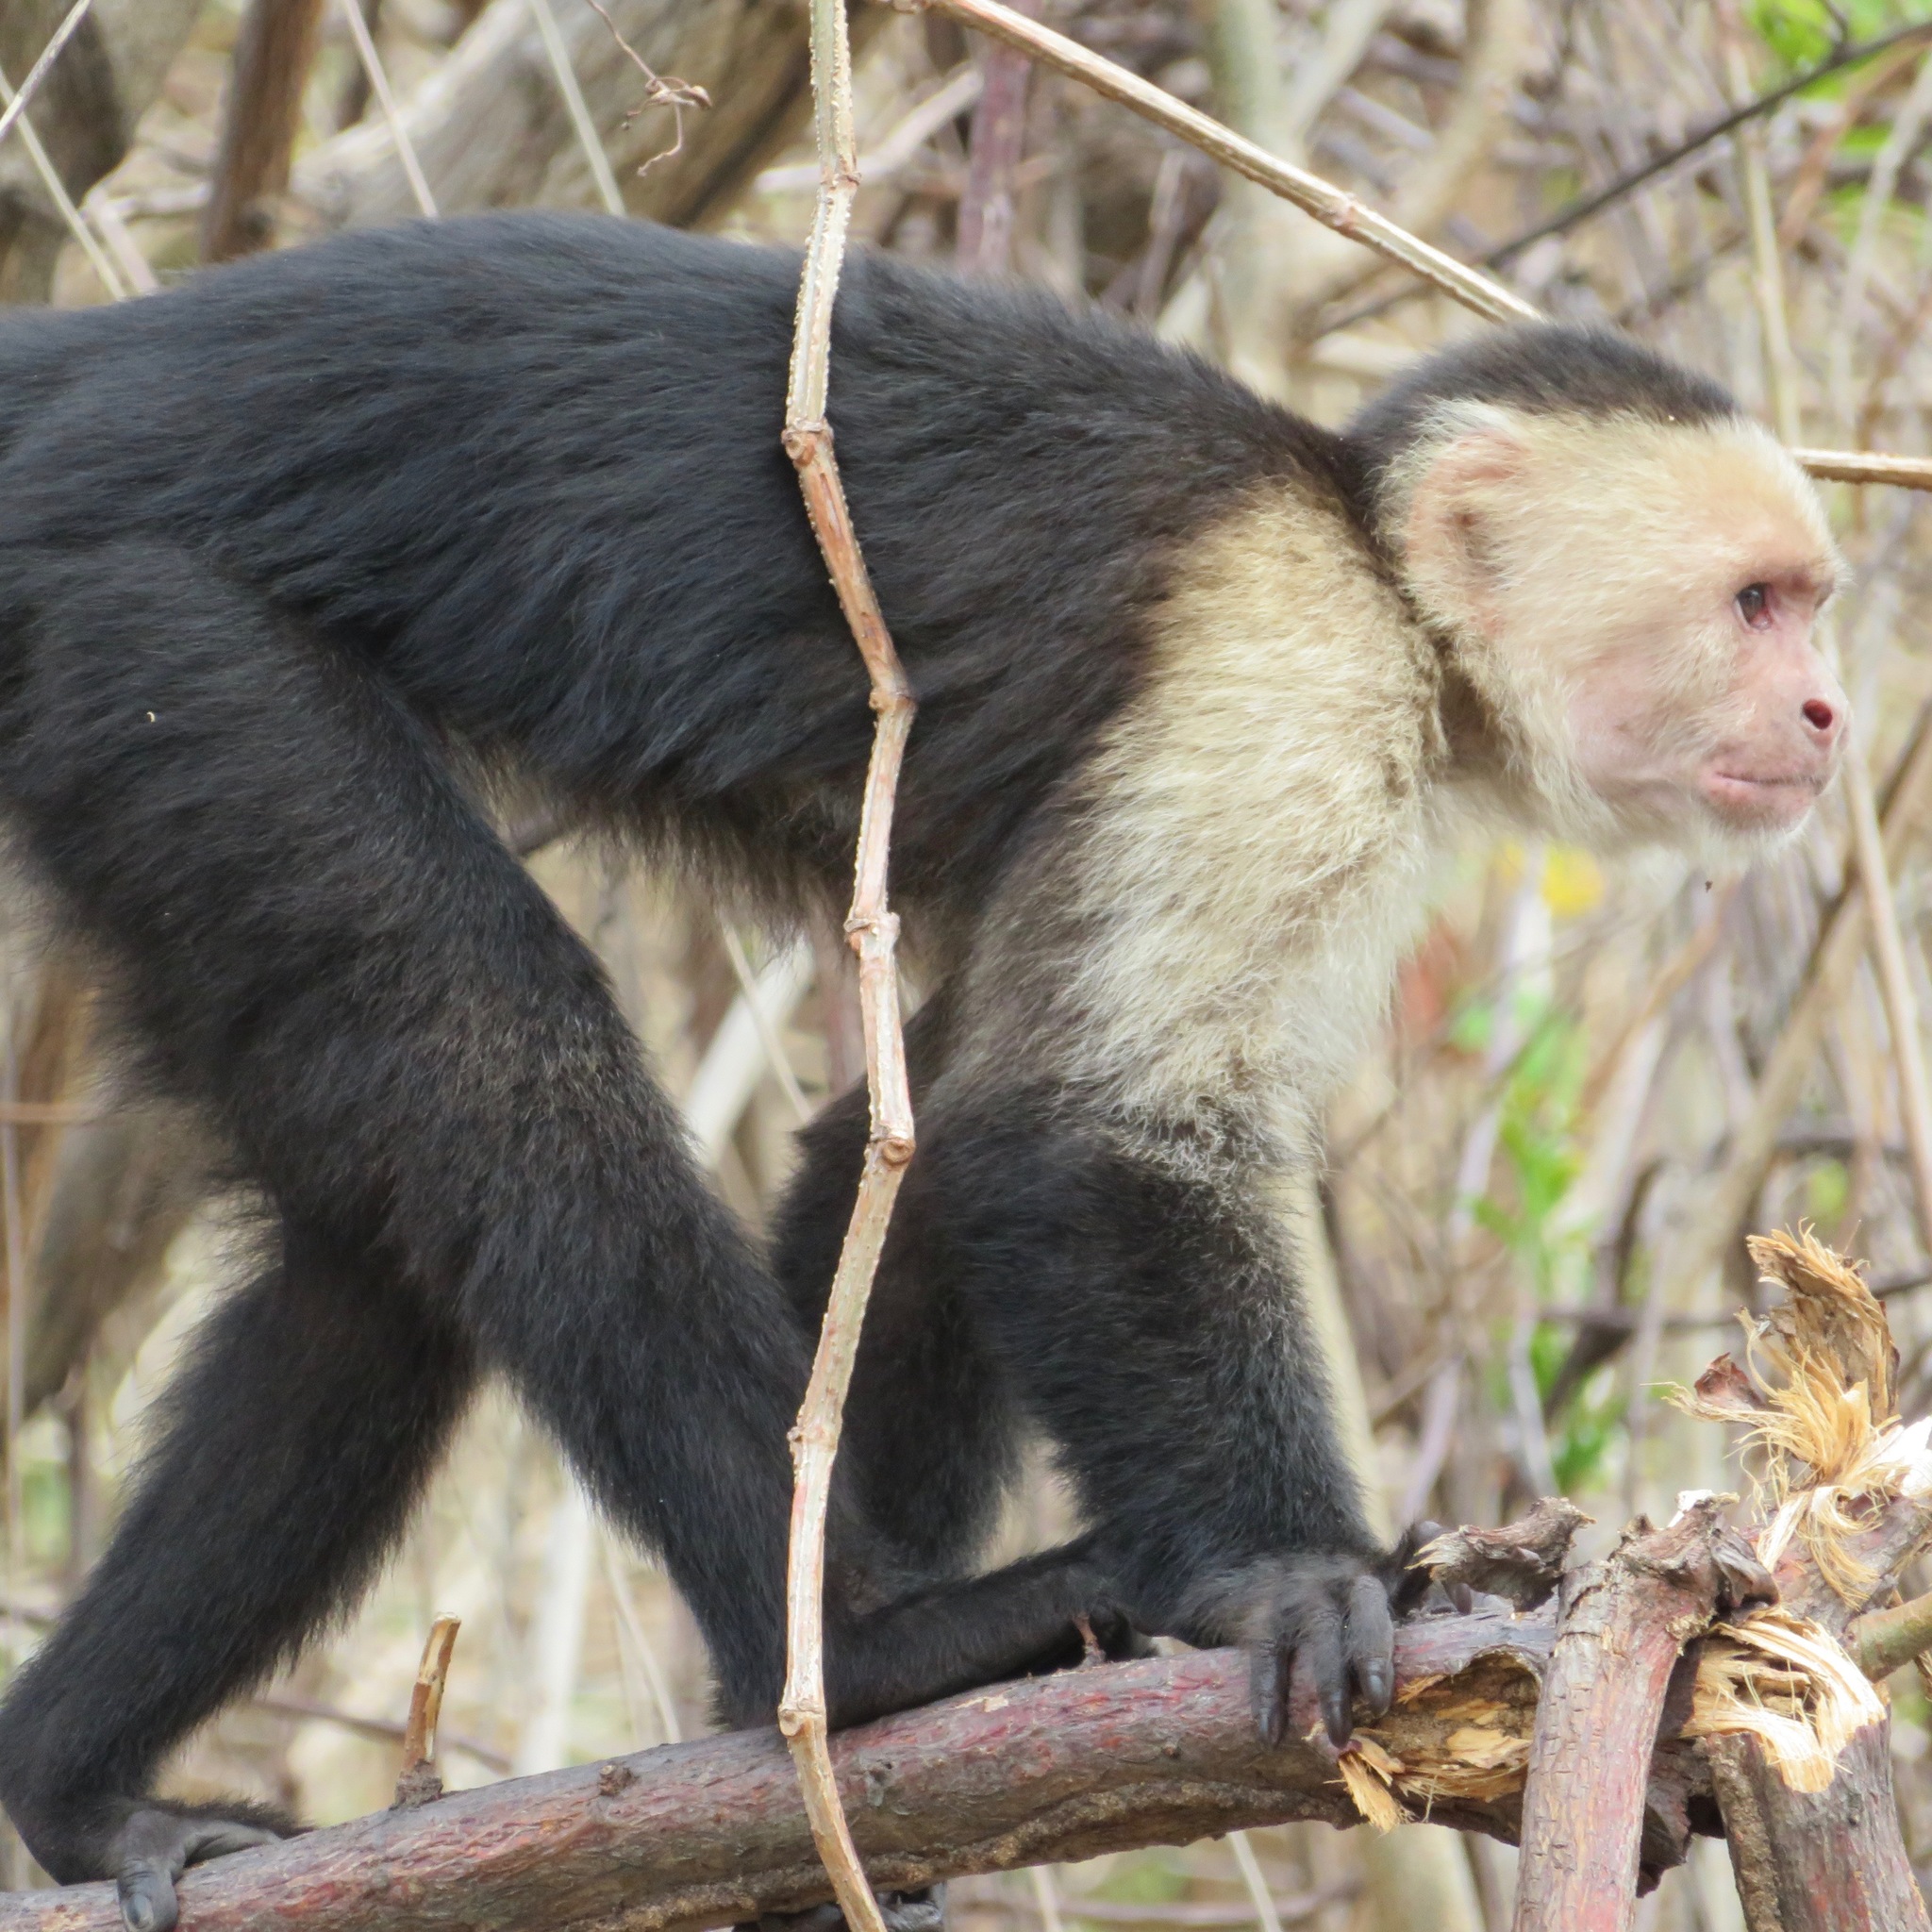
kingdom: Animalia
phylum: Chordata
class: Mammalia
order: Primates
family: Cebidae
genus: Cebus
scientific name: Cebus imitator
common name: Panamanian white-faced capuchin
